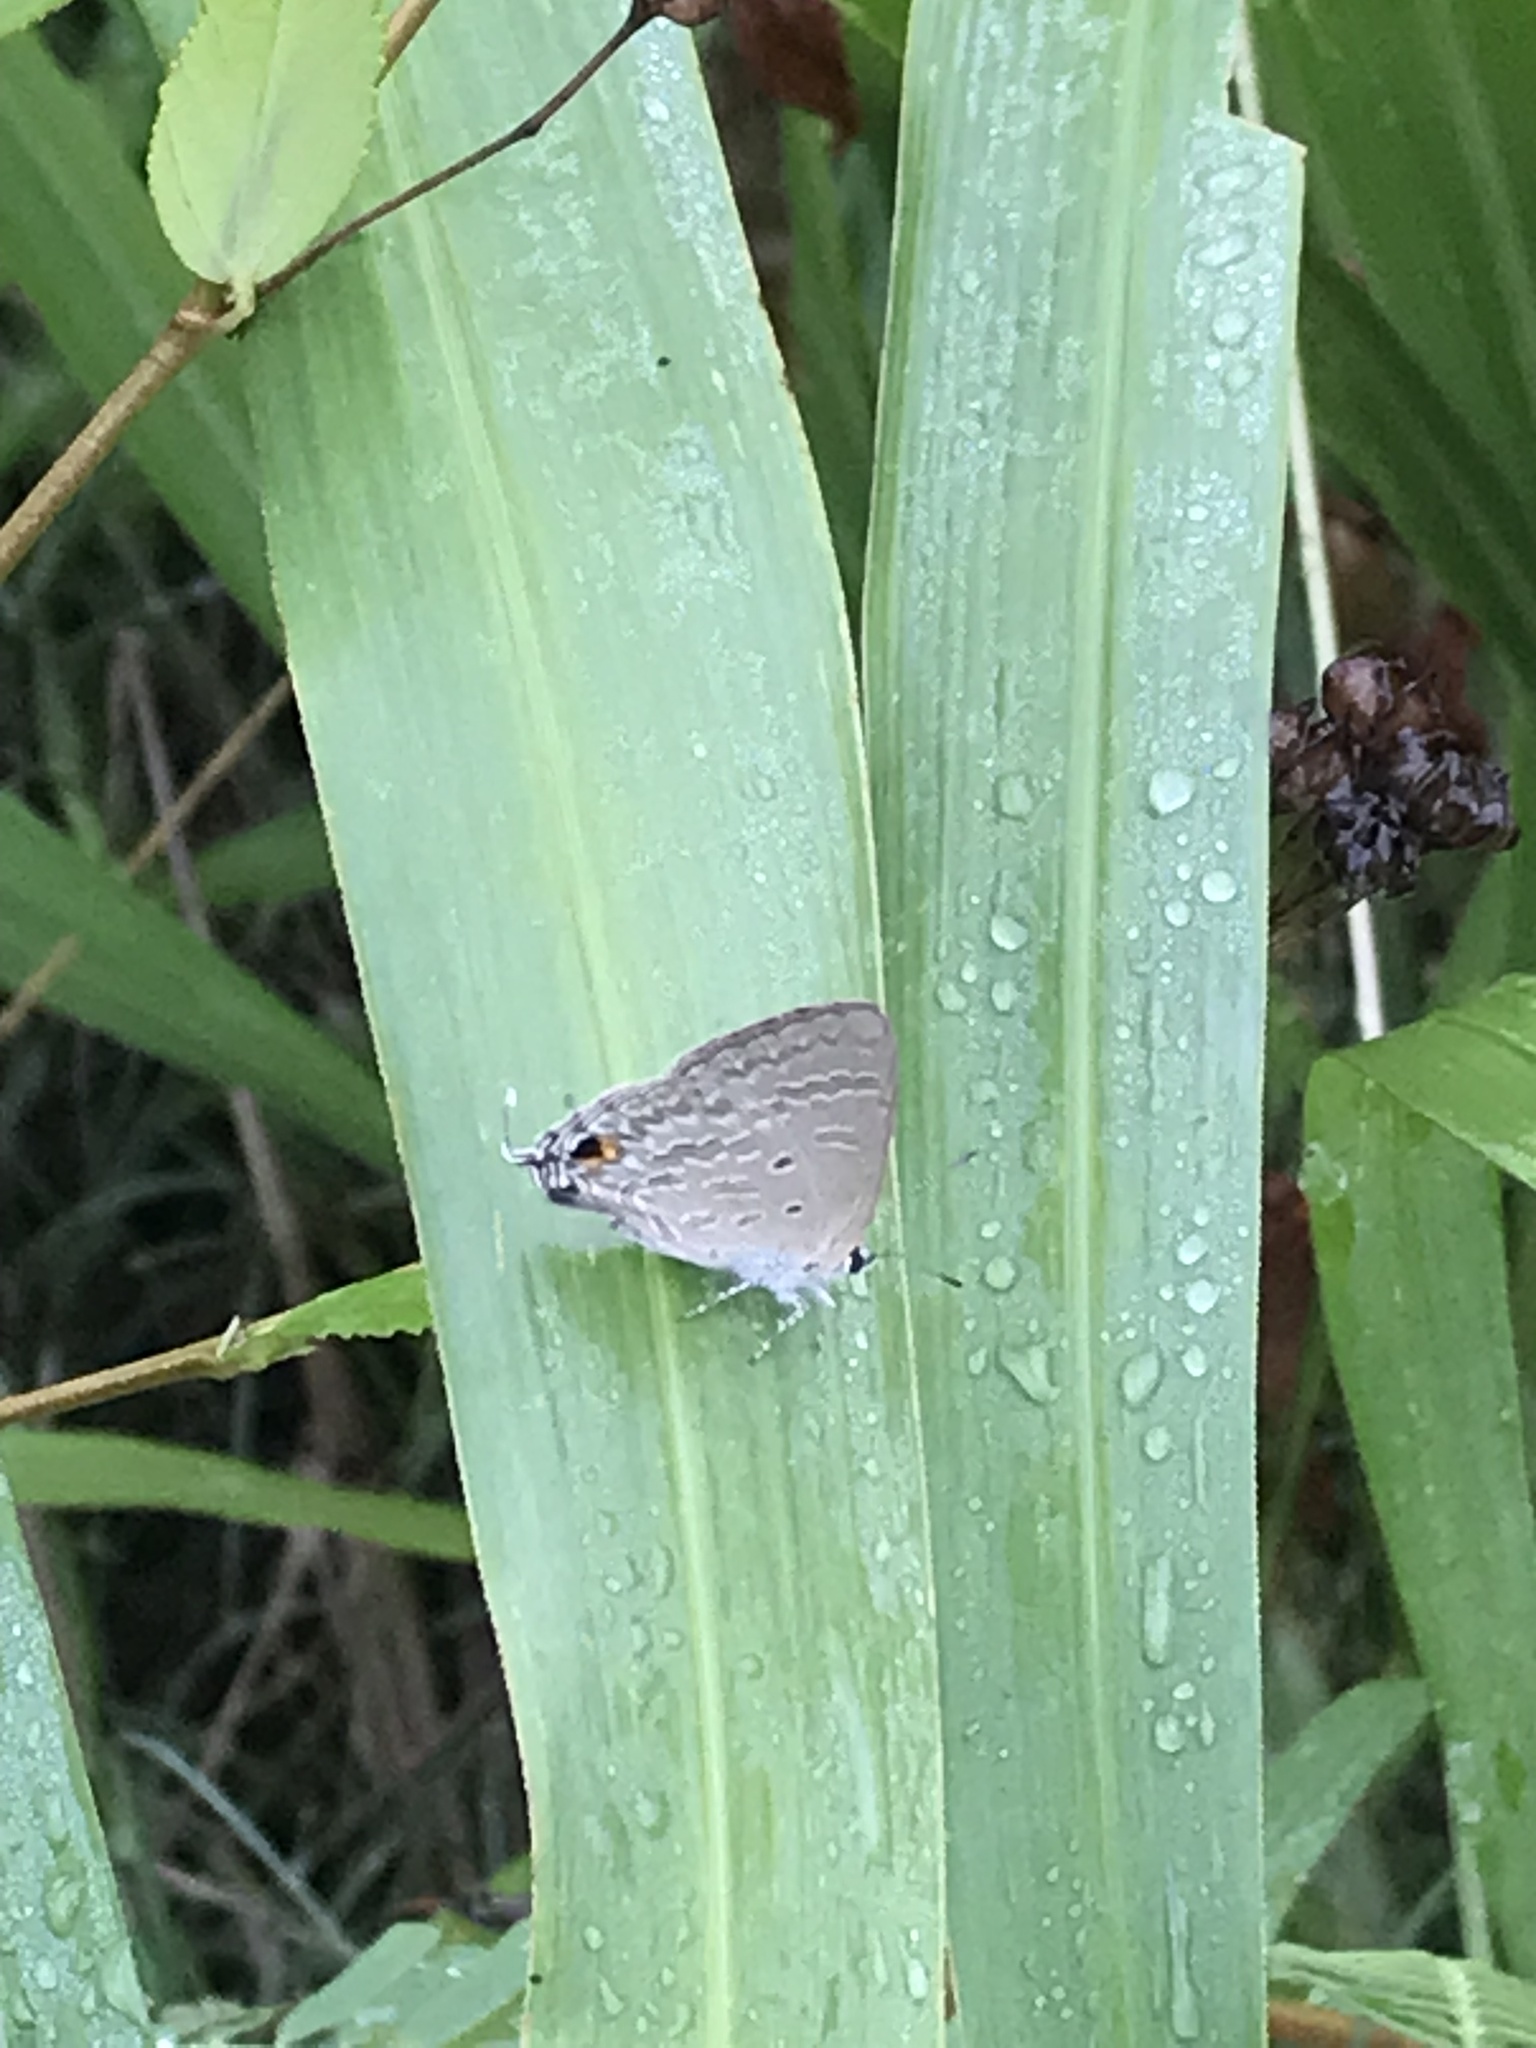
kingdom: Animalia
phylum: Arthropoda
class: Insecta
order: Lepidoptera
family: Lycaenidae
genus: Catochrysops
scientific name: Catochrysops panormus
